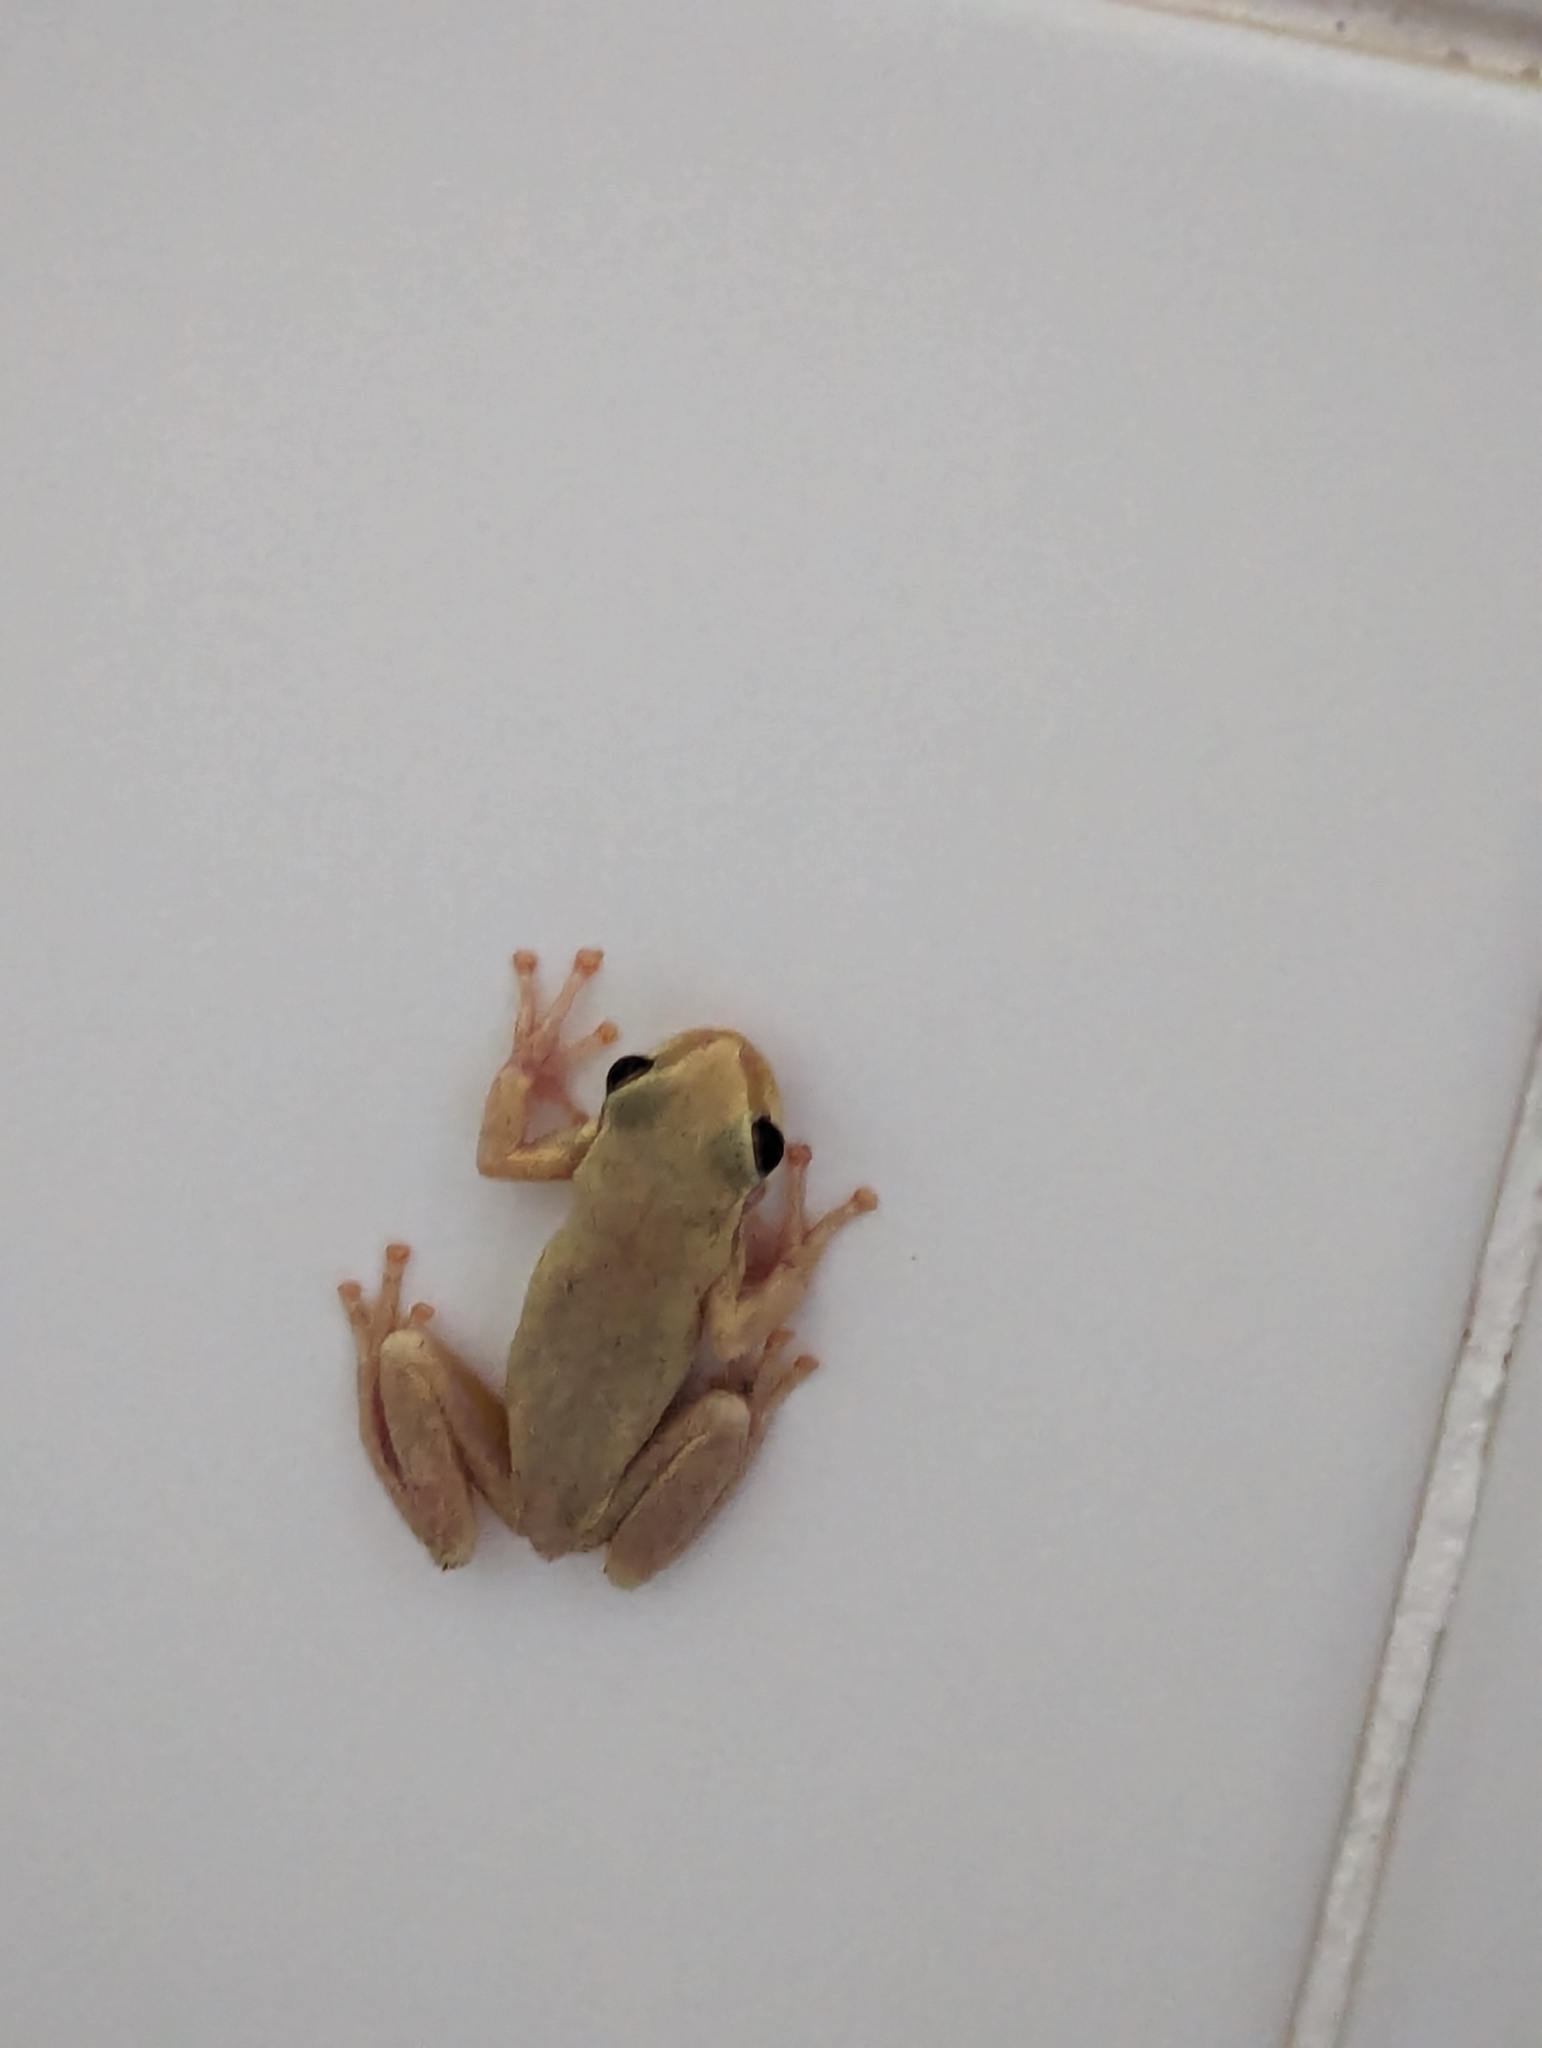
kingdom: Animalia
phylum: Chordata
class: Amphibia
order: Anura
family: Pelodryadidae
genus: Litoria
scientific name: Litoria rubella
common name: Desert tree frog
